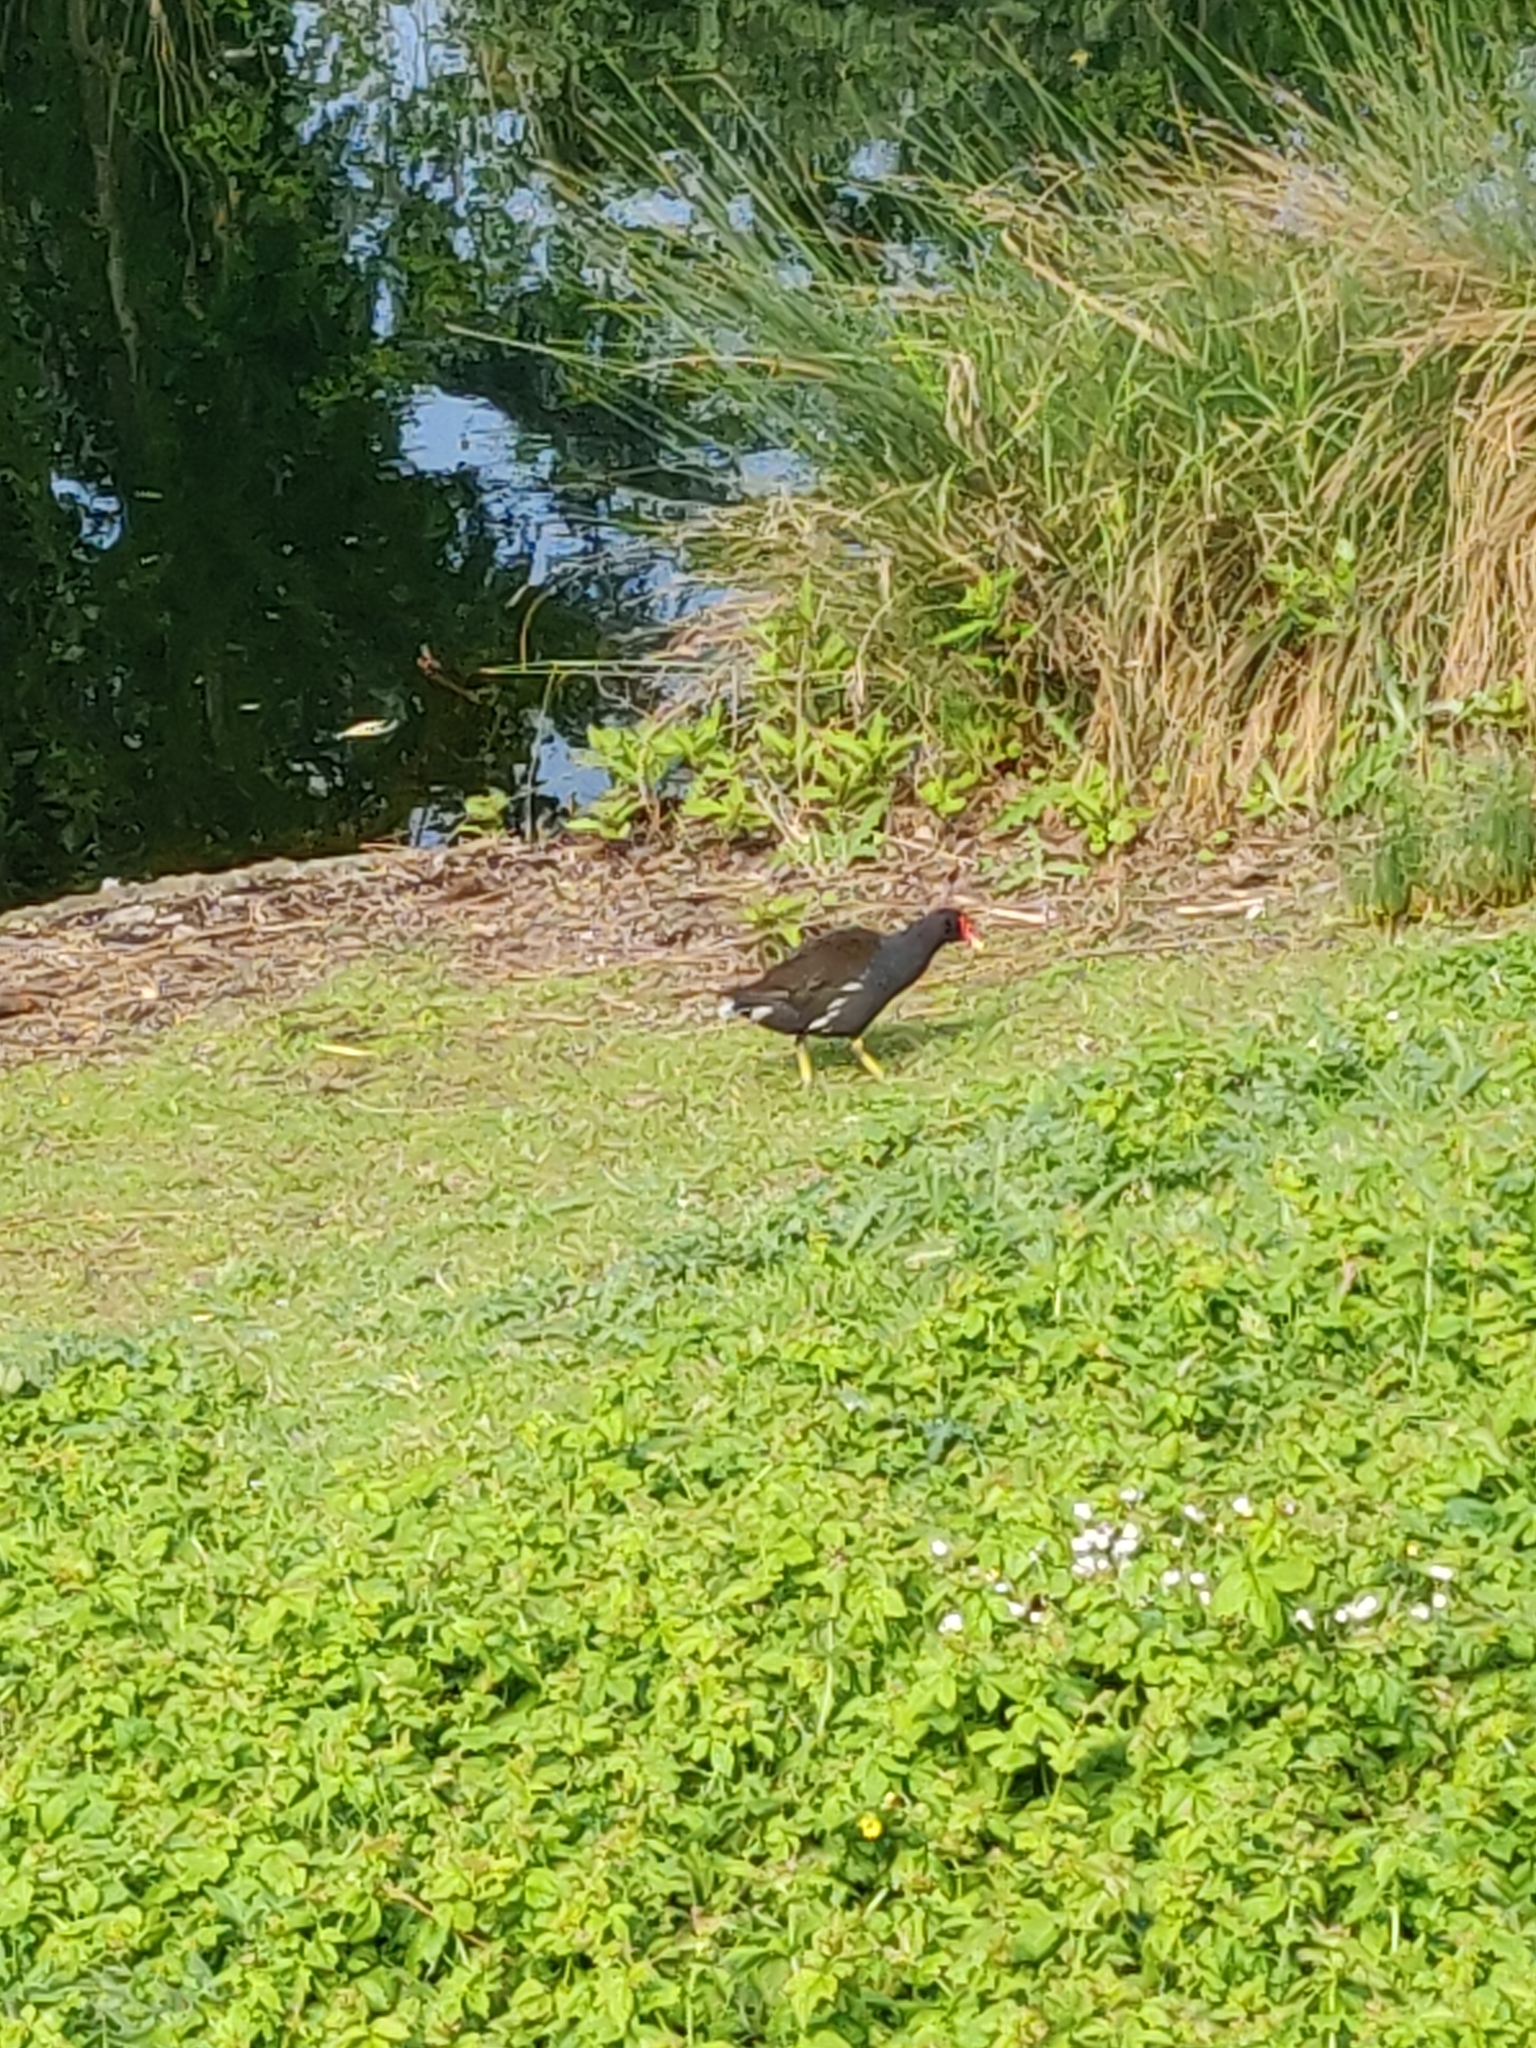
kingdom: Animalia
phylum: Chordata
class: Aves
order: Gruiformes
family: Rallidae
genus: Gallinula
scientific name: Gallinula chloropus
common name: Common moorhen
